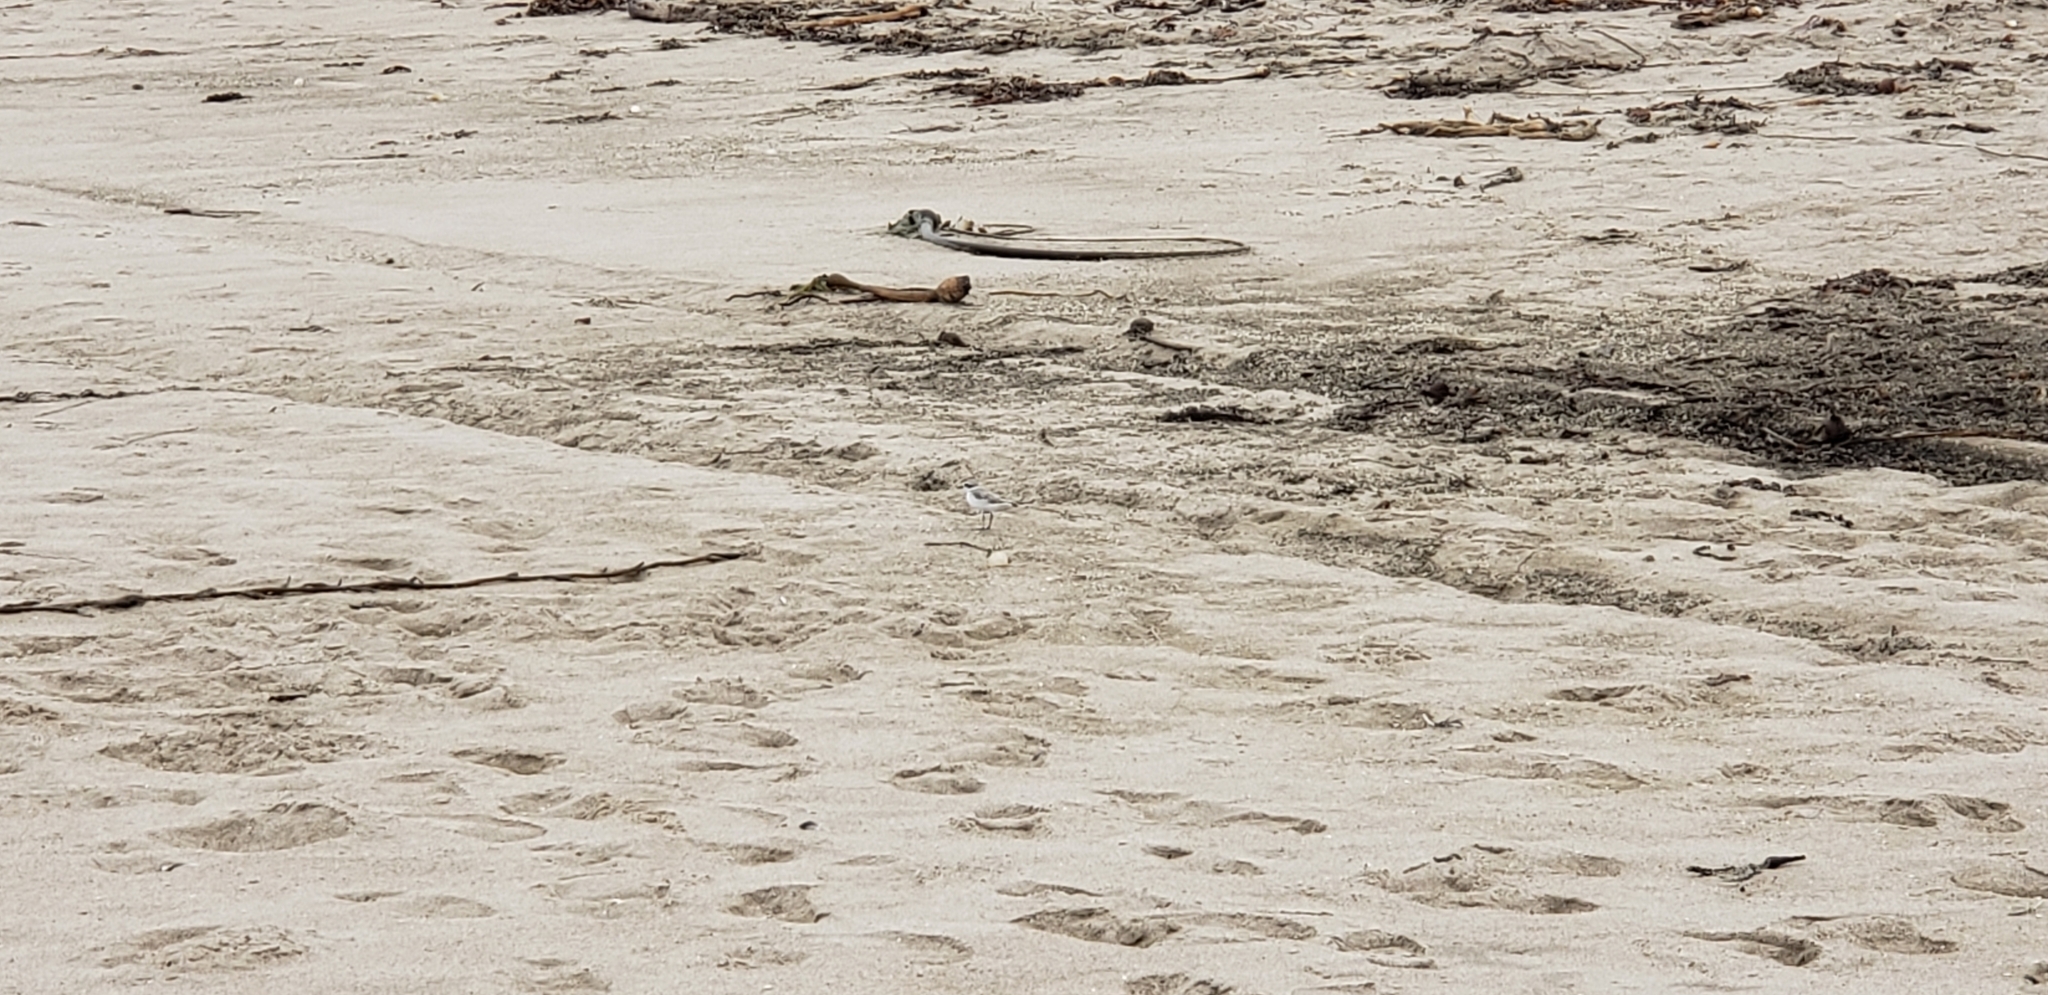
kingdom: Animalia
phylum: Chordata
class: Aves
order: Charadriiformes
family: Charadriidae
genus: Anarhynchus
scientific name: Anarhynchus
